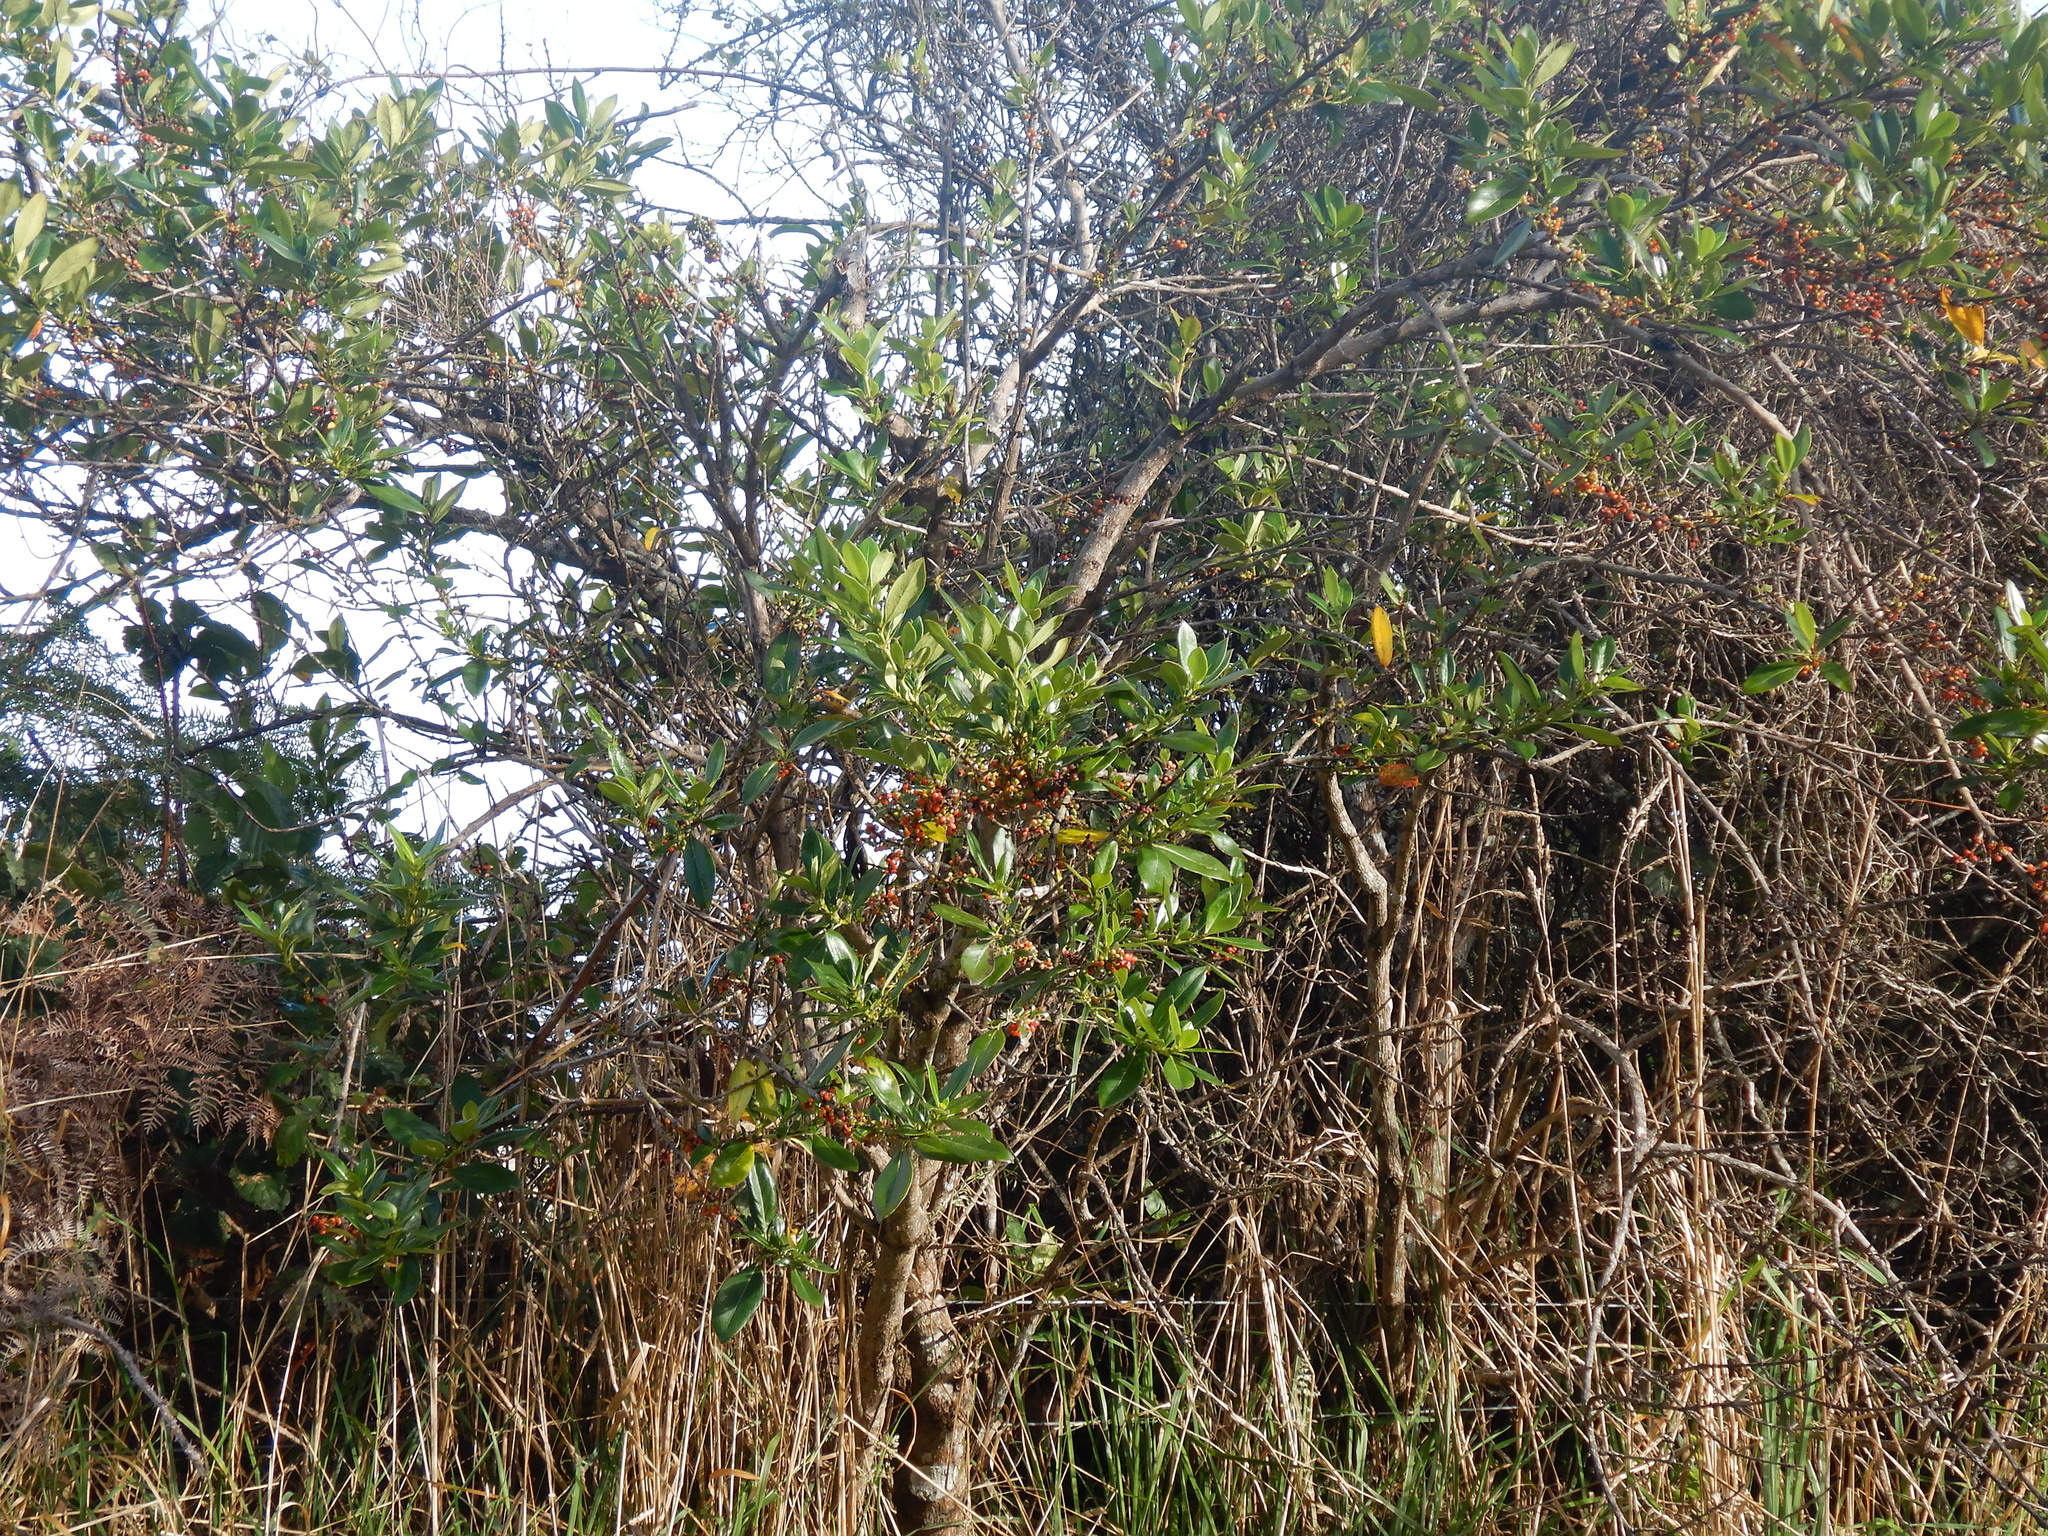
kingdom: Plantae
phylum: Tracheophyta
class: Magnoliopsida
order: Gentianales
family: Rubiaceae
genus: Coprosma
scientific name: Coprosma robusta
